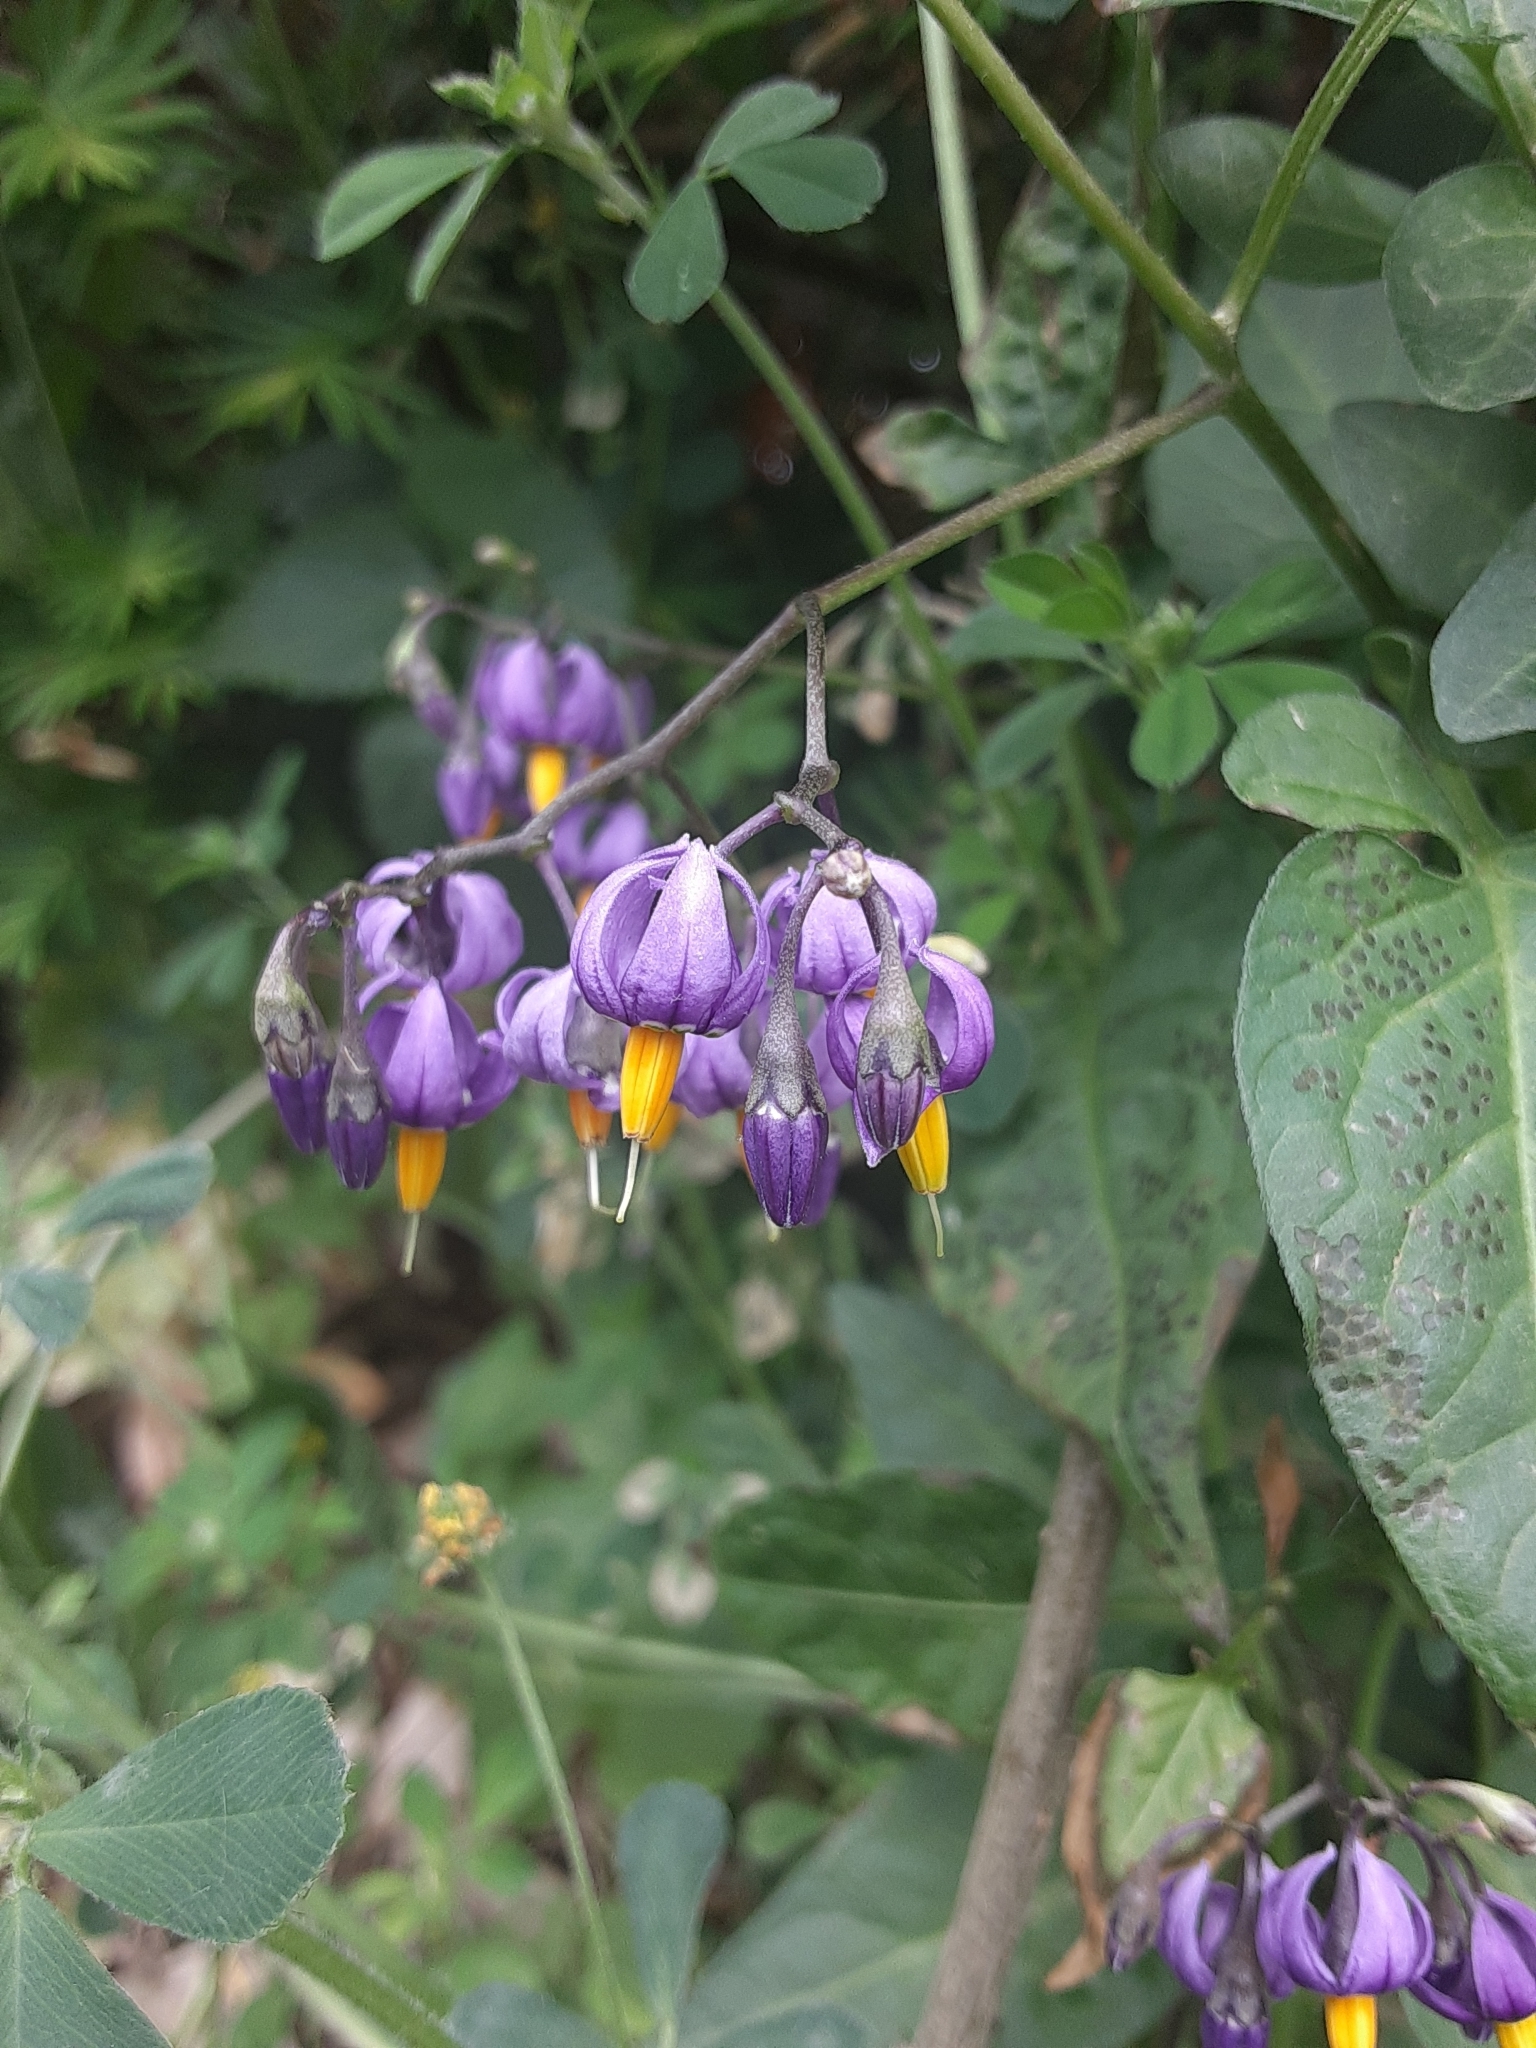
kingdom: Plantae
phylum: Tracheophyta
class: Magnoliopsida
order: Solanales
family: Solanaceae
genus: Solanum
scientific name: Solanum dulcamara
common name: Climbing nightshade
